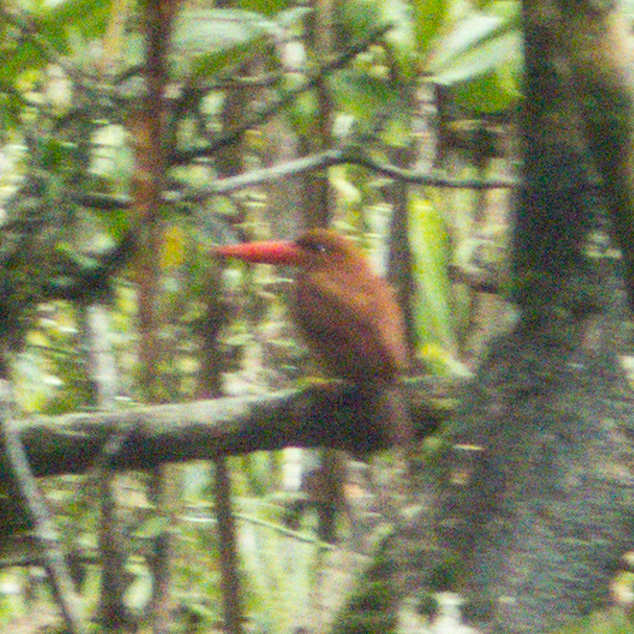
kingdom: Animalia
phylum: Chordata
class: Aves
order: Coraciiformes
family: Alcedinidae
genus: Halcyon
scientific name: Halcyon coromanda
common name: Ruddy kingfisher
